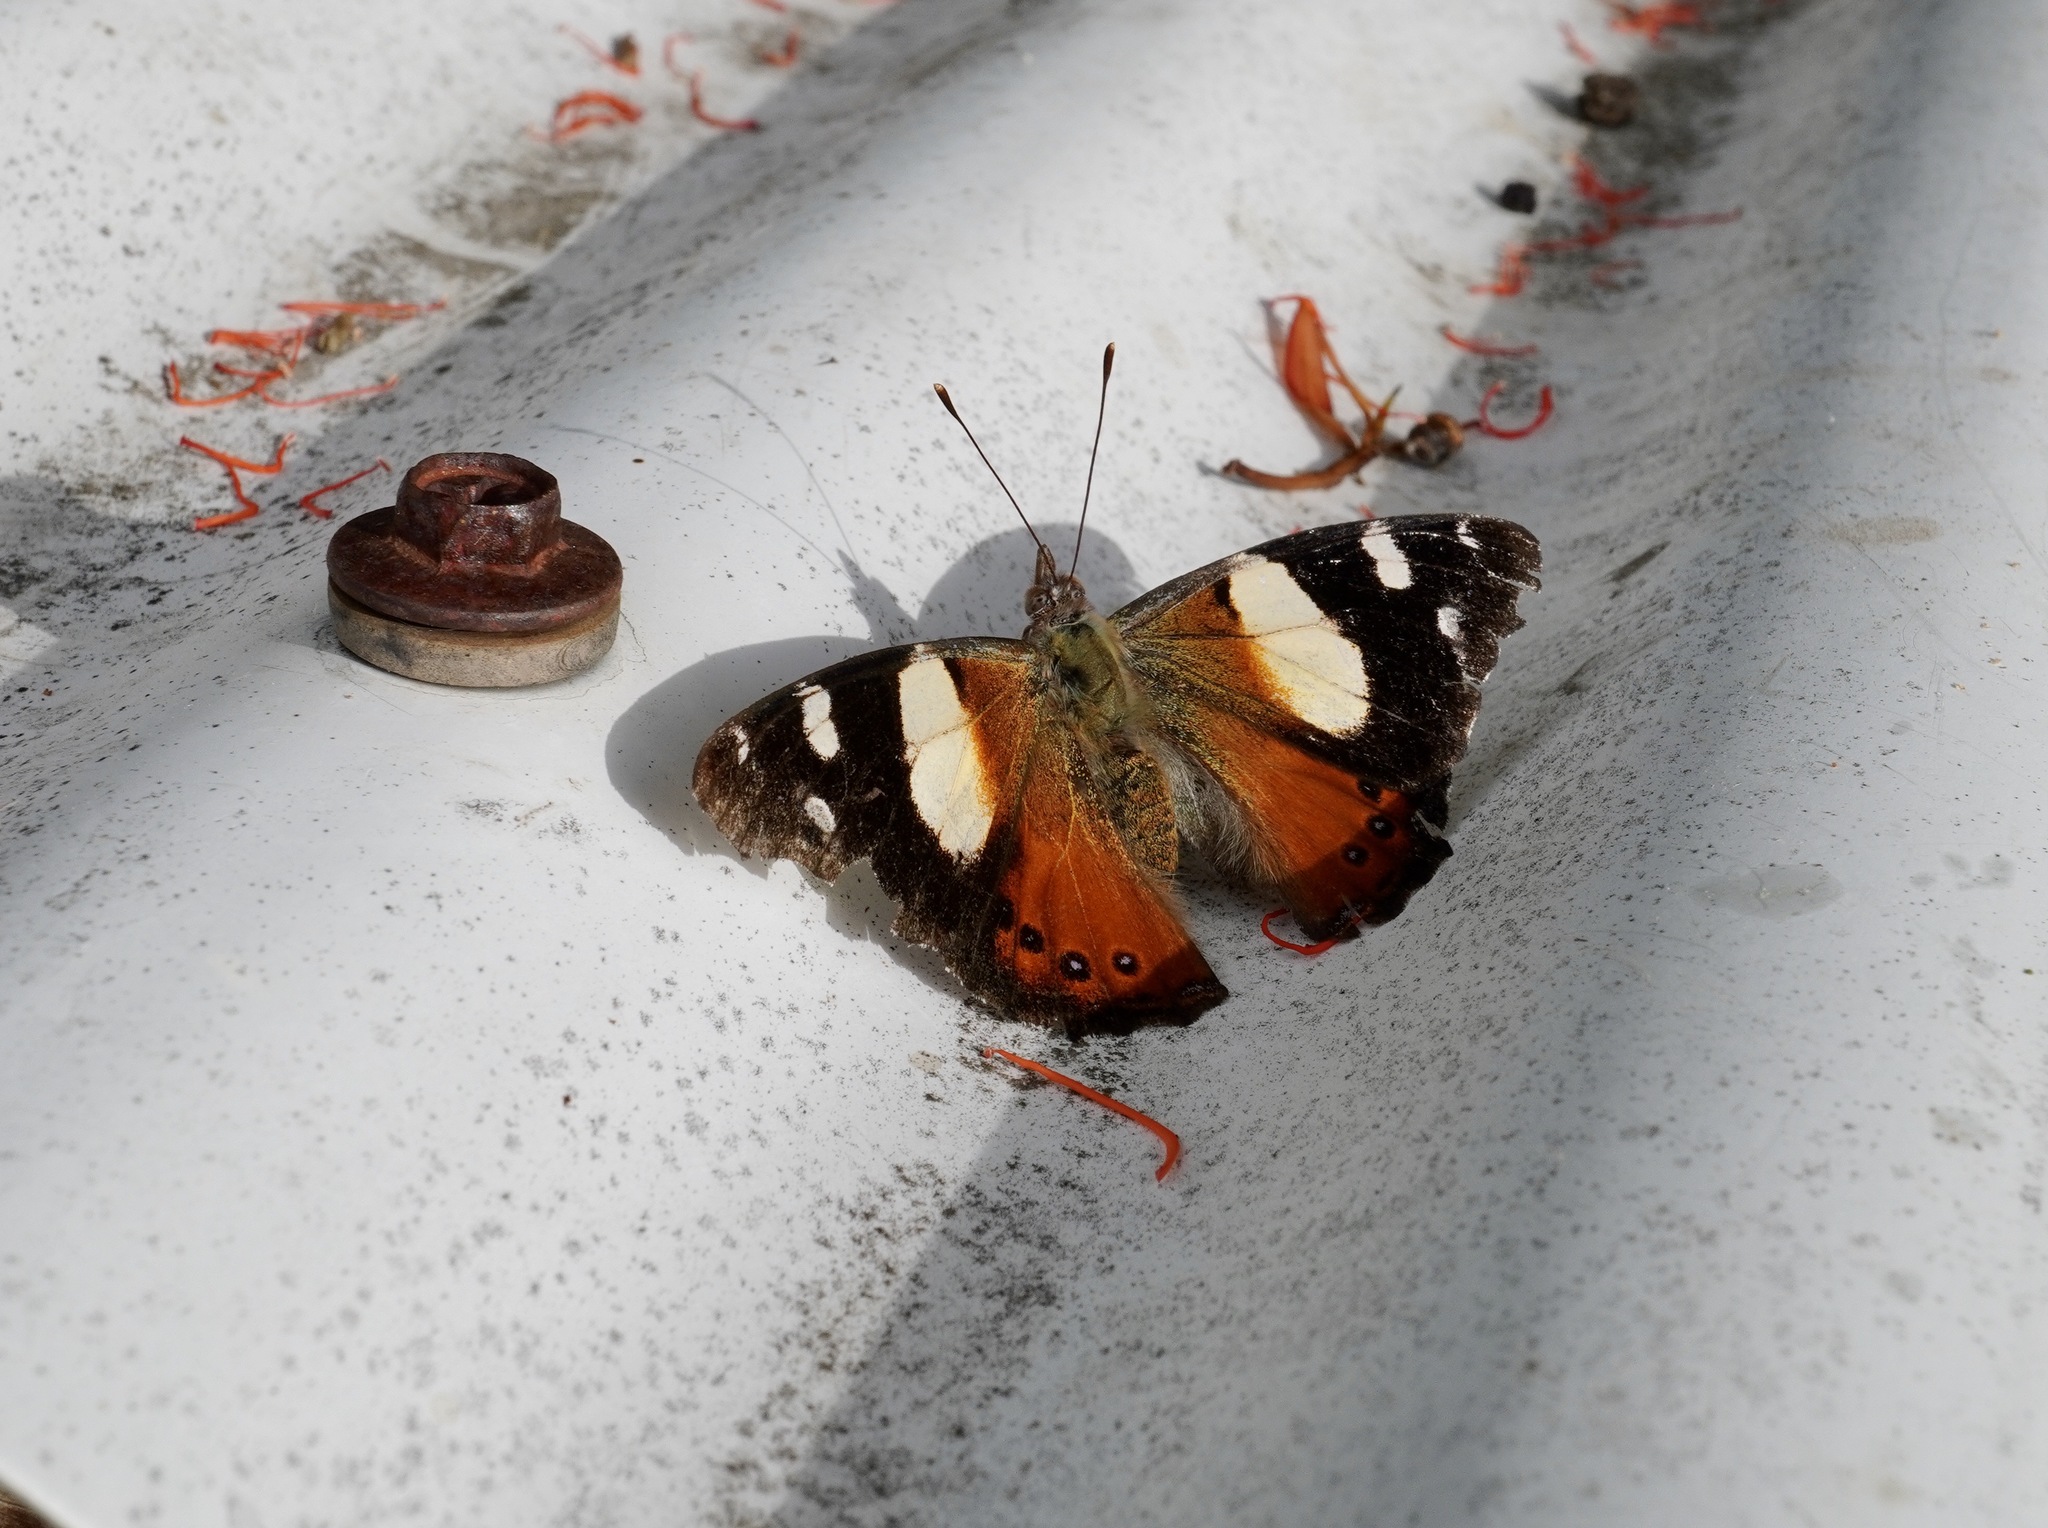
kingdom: Animalia
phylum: Arthropoda
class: Insecta
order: Lepidoptera
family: Nymphalidae
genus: Vanessa
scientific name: Vanessa itea
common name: Yellow admiral
